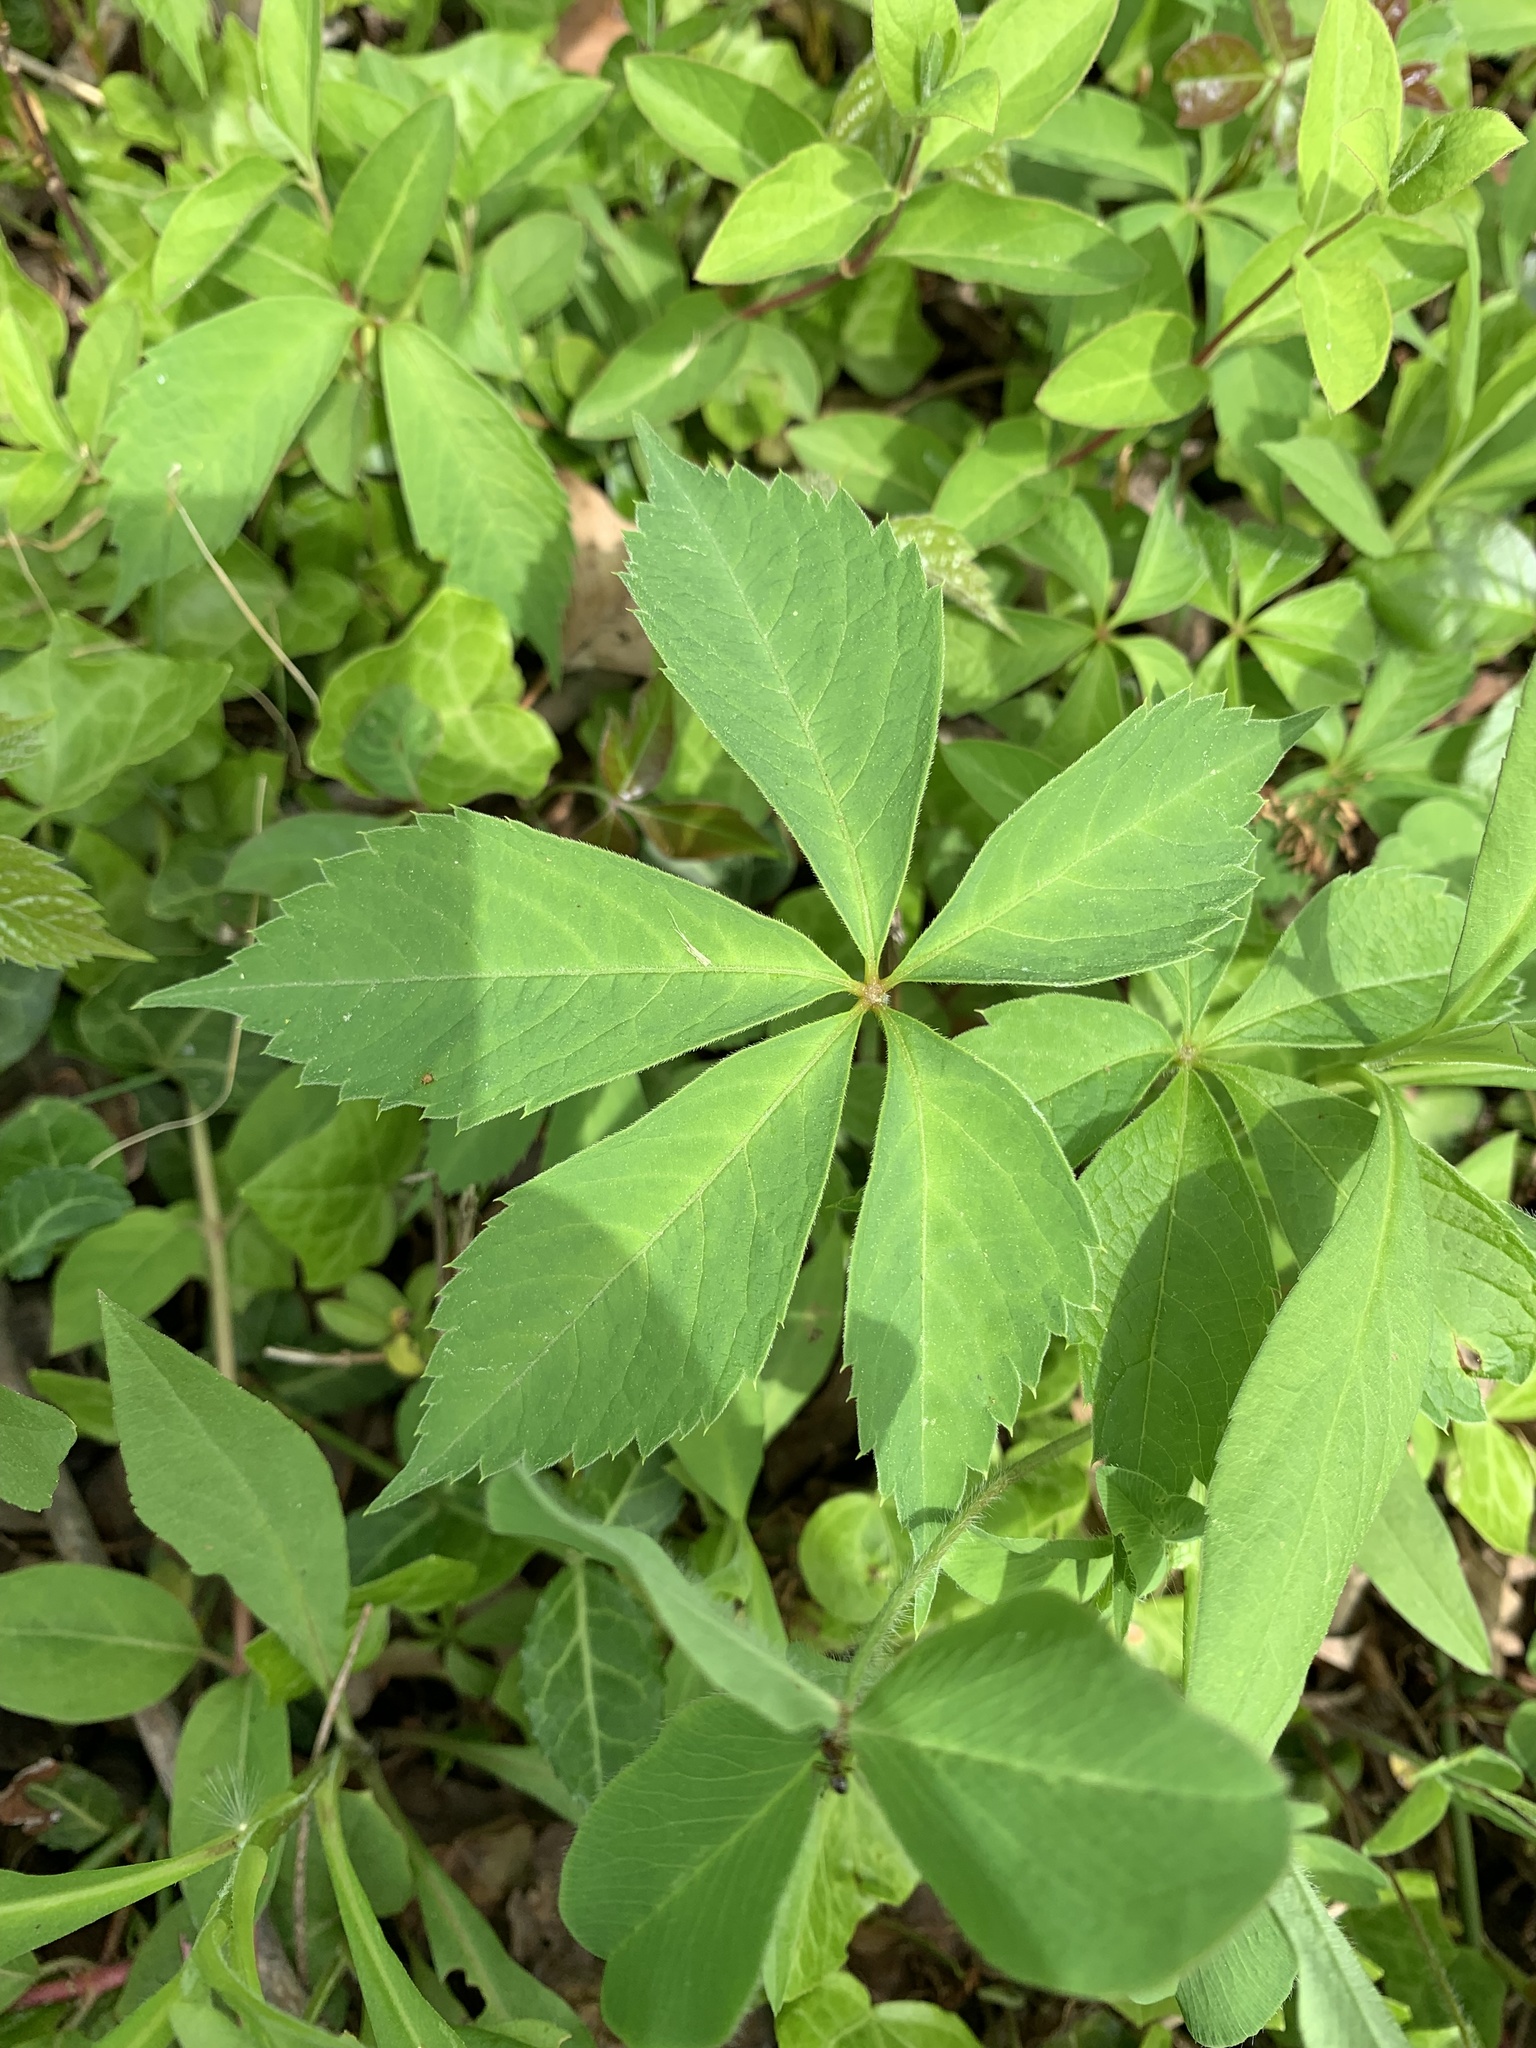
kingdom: Plantae
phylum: Tracheophyta
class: Magnoliopsida
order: Vitales
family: Vitaceae
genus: Parthenocissus
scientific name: Parthenocissus quinquefolia
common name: Virginia-creeper
